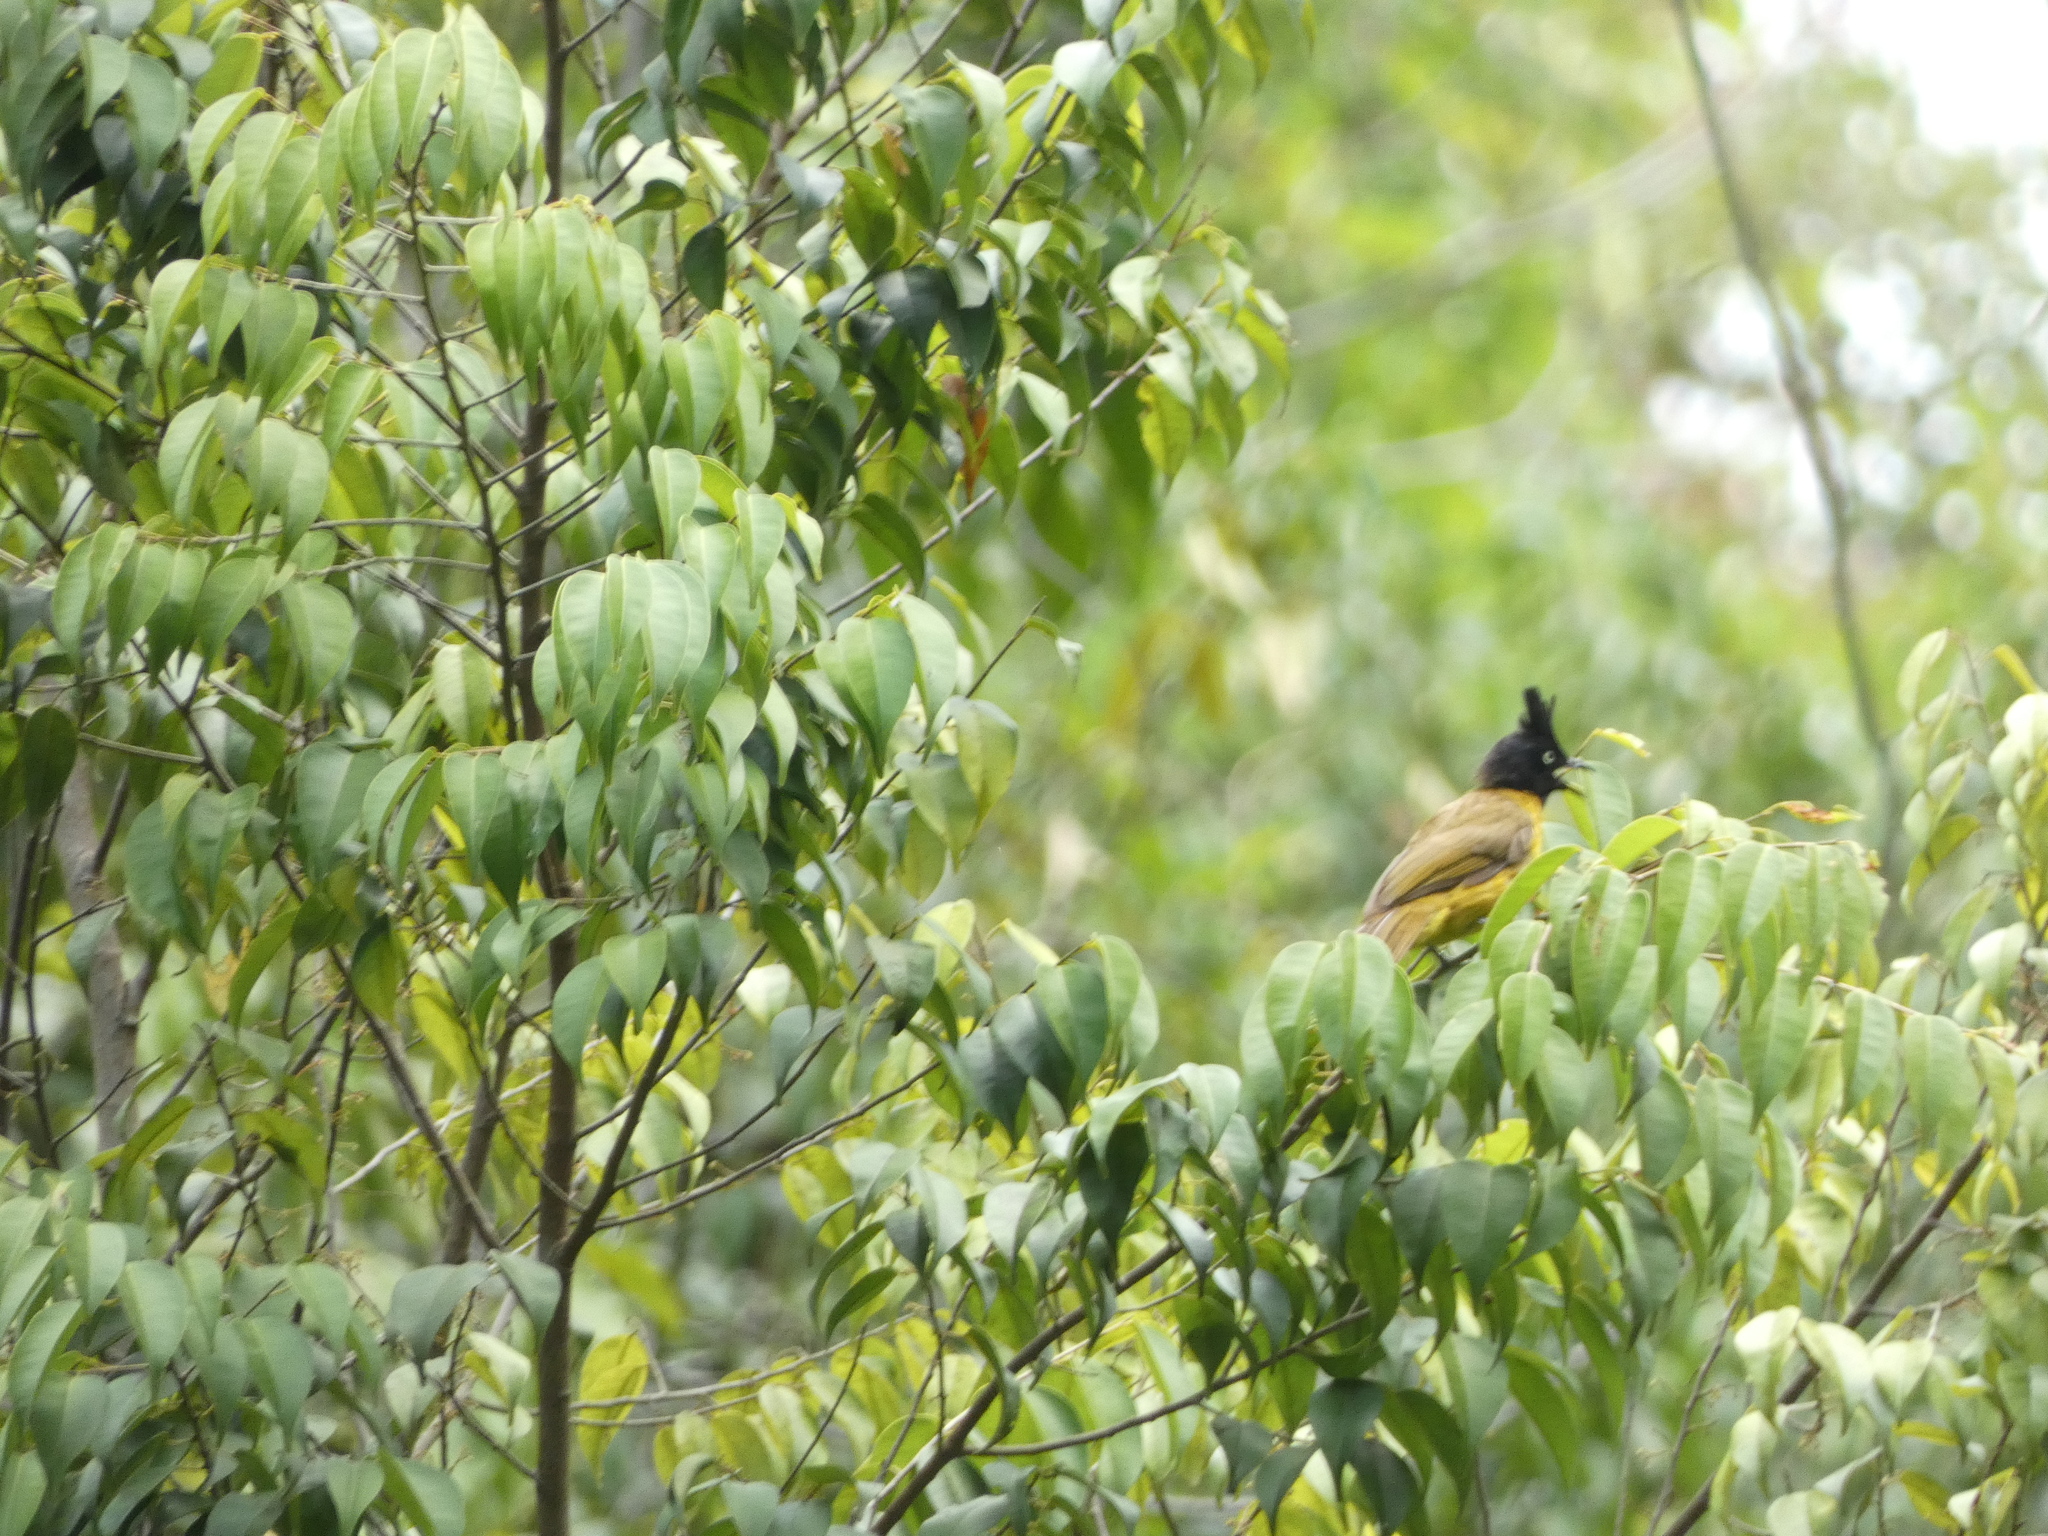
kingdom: Animalia
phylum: Chordata
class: Aves
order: Passeriformes
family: Pycnonotidae
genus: Pycnonotus
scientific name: Pycnonotus flaviventris
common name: Black-crested bulbul
